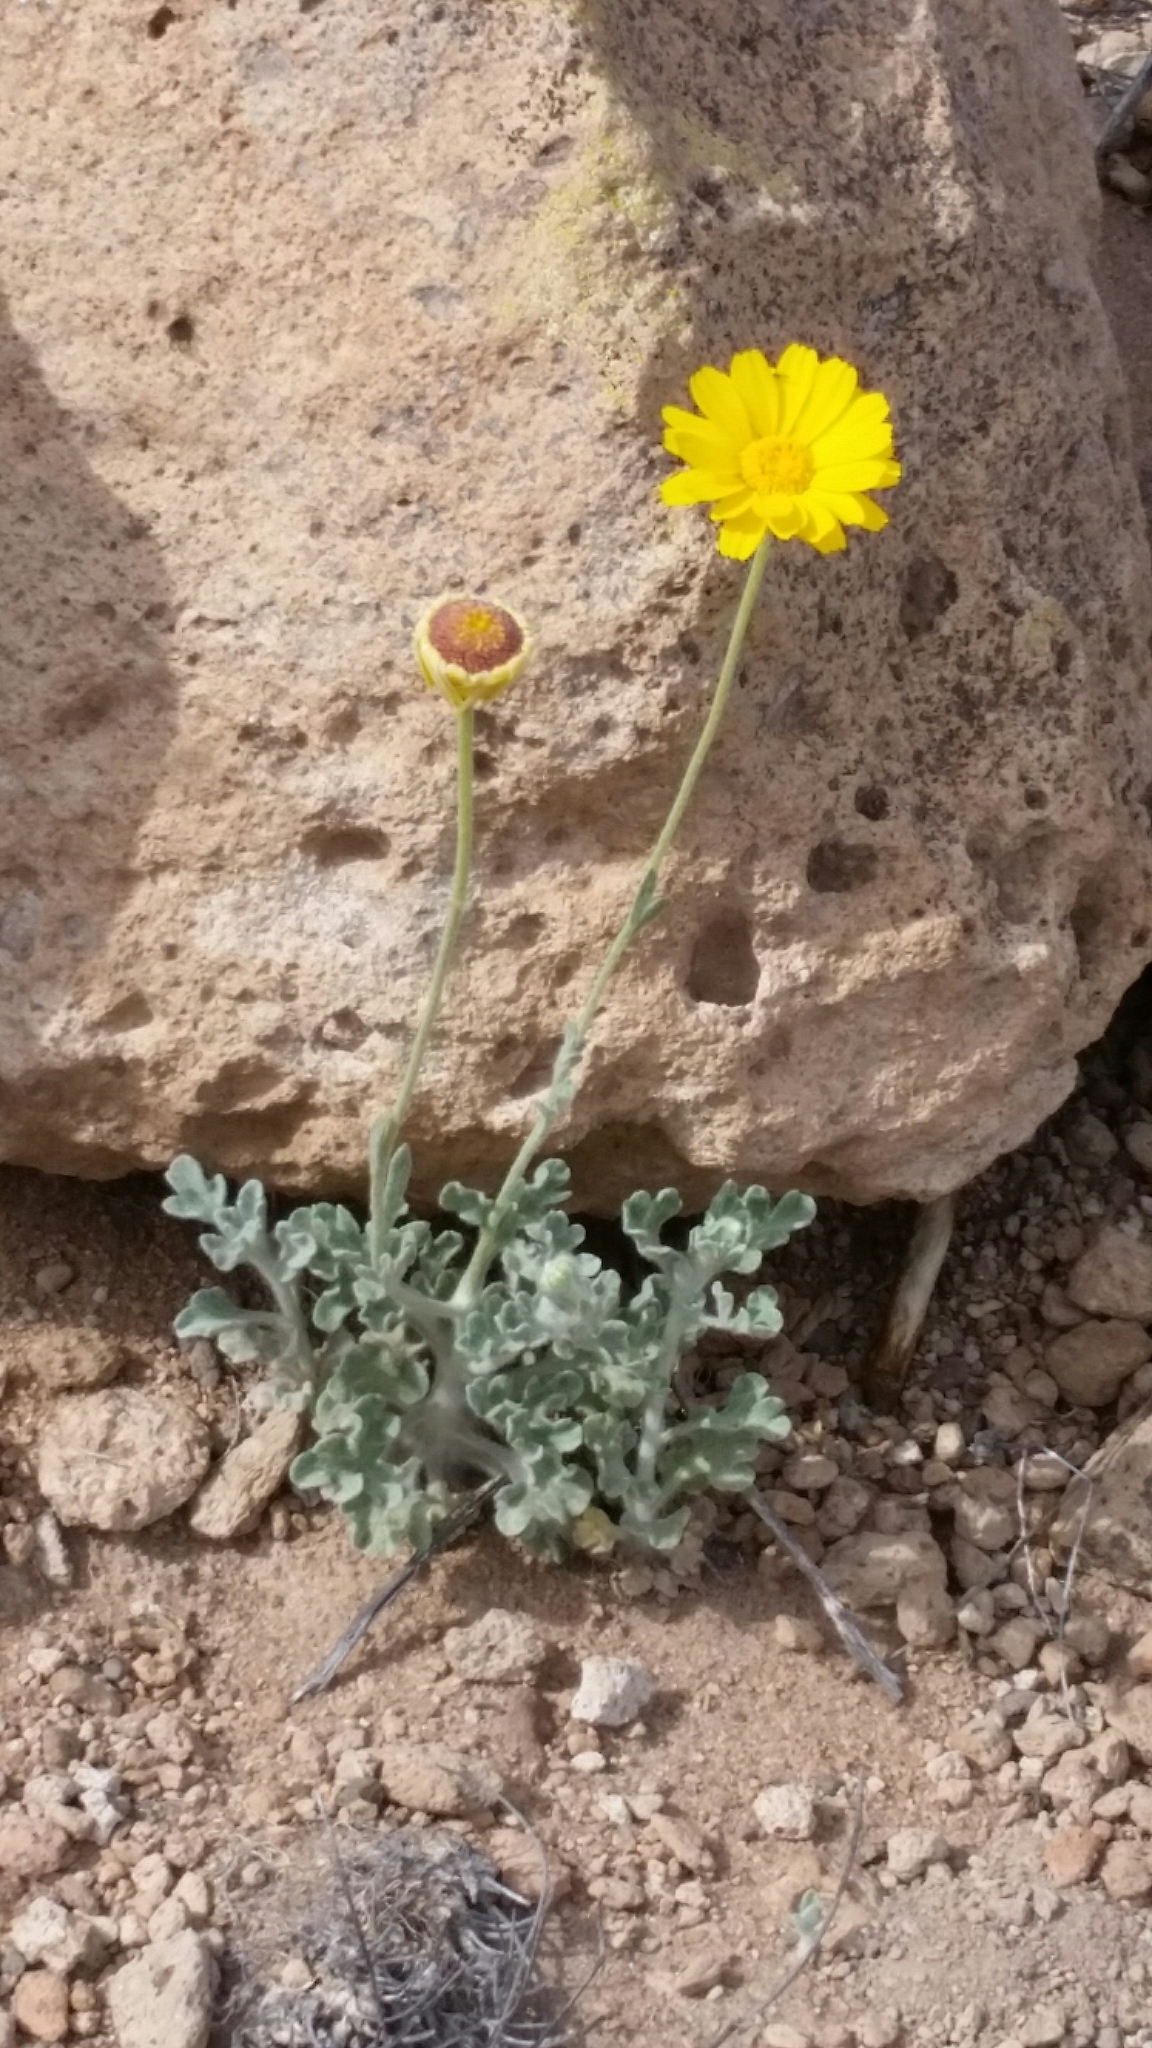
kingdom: Plantae
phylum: Tracheophyta
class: Magnoliopsida
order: Asterales
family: Asteraceae
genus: Baileya
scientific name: Baileya multiradiata
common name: Desert-marigold
